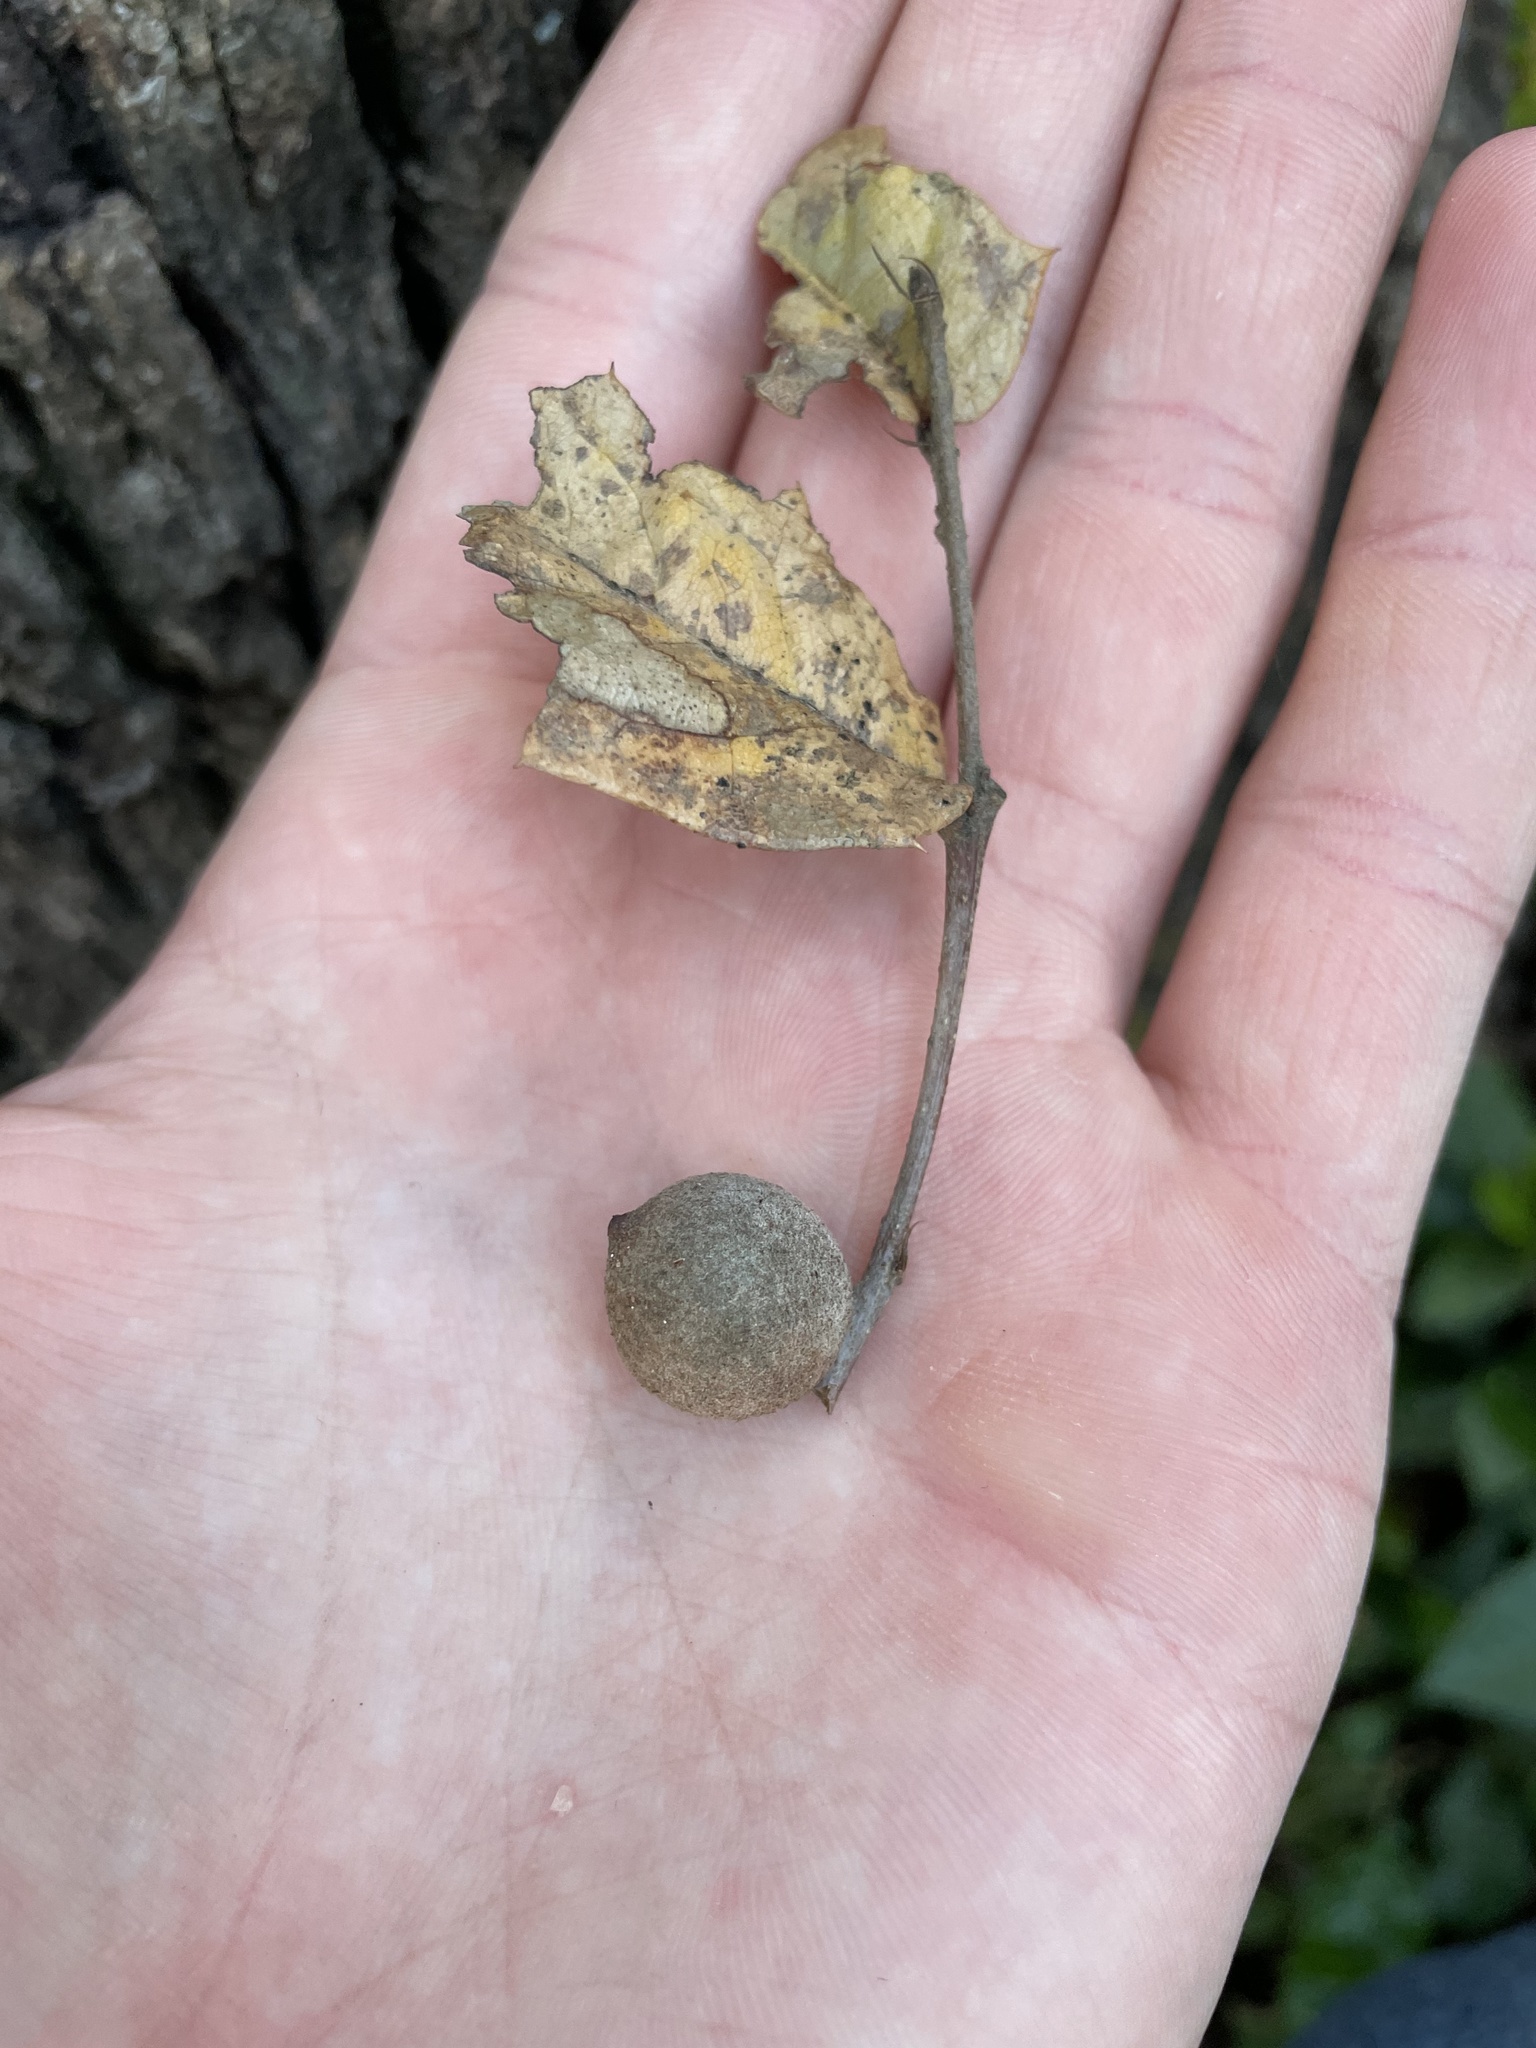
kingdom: Animalia
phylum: Arthropoda
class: Insecta
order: Hymenoptera
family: Cynipidae
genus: Disholcaspis
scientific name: Disholcaspis
